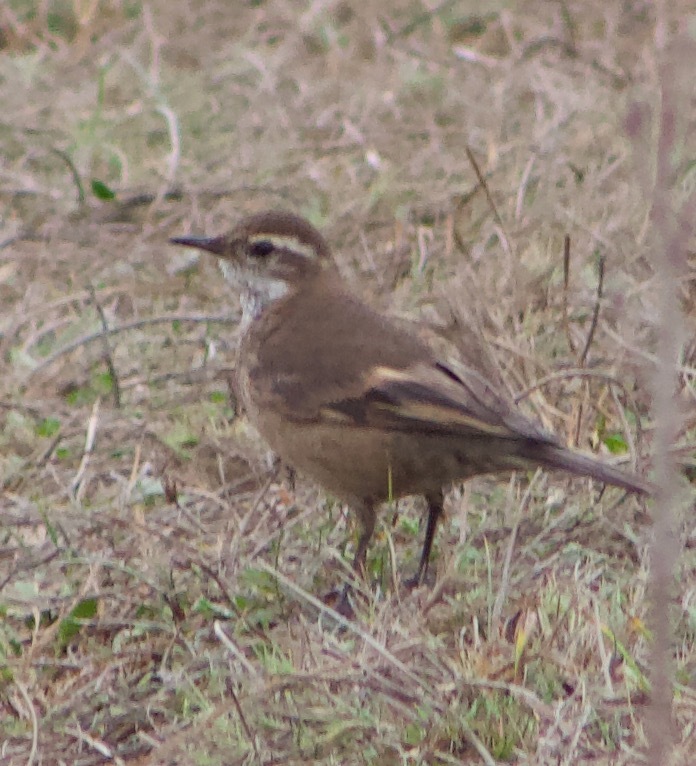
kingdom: Animalia
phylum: Chordata
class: Aves
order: Passeriformes
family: Furnariidae
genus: Cinclodes
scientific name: Cinclodes fuscus
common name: Buff-winged cinclodes
